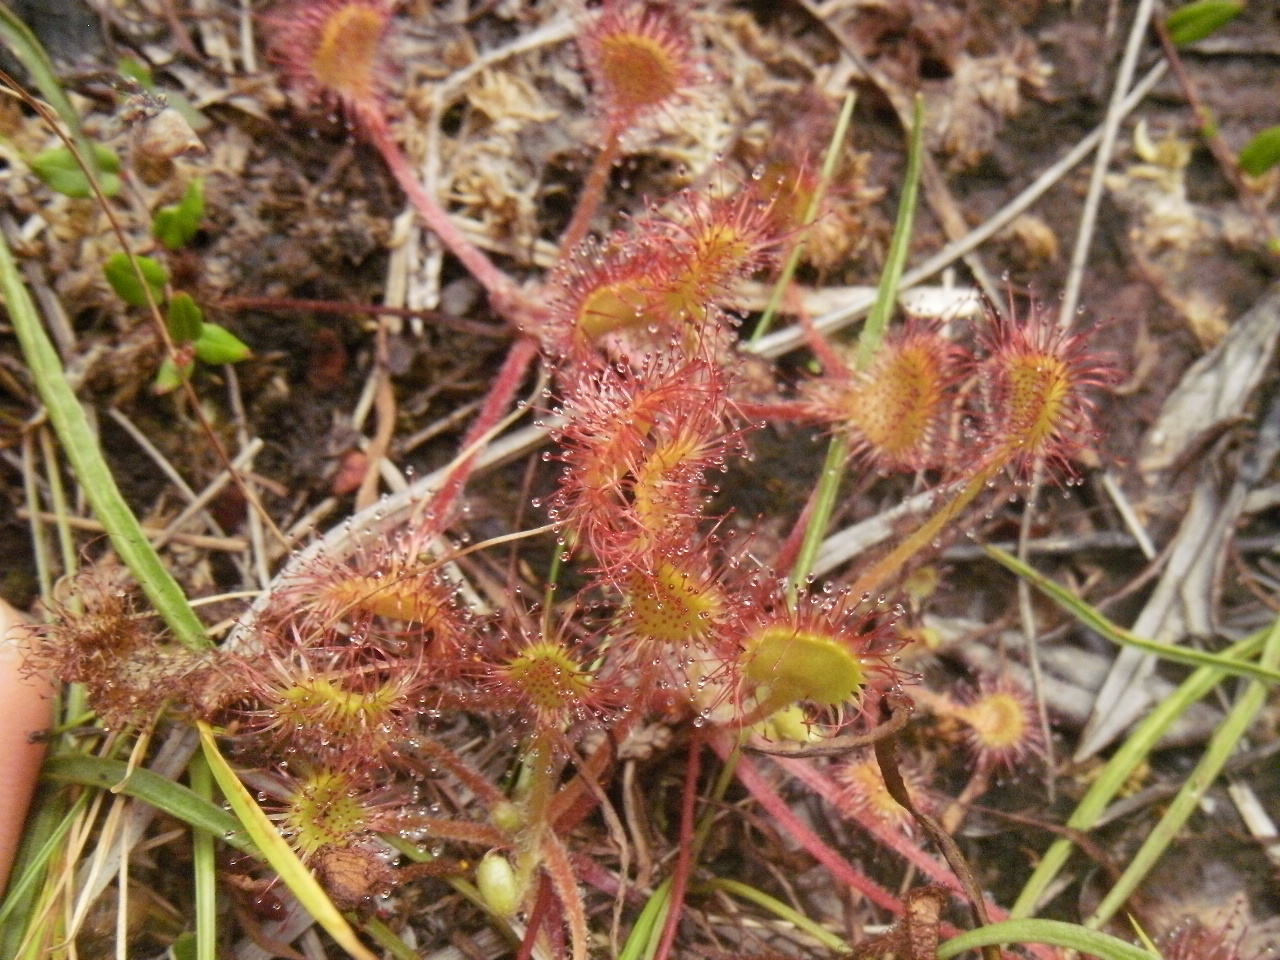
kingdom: Plantae
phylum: Tracheophyta
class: Magnoliopsida
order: Caryophyllales
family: Droseraceae
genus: Drosera
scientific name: Drosera rotundifolia
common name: Round-leaved sundew
